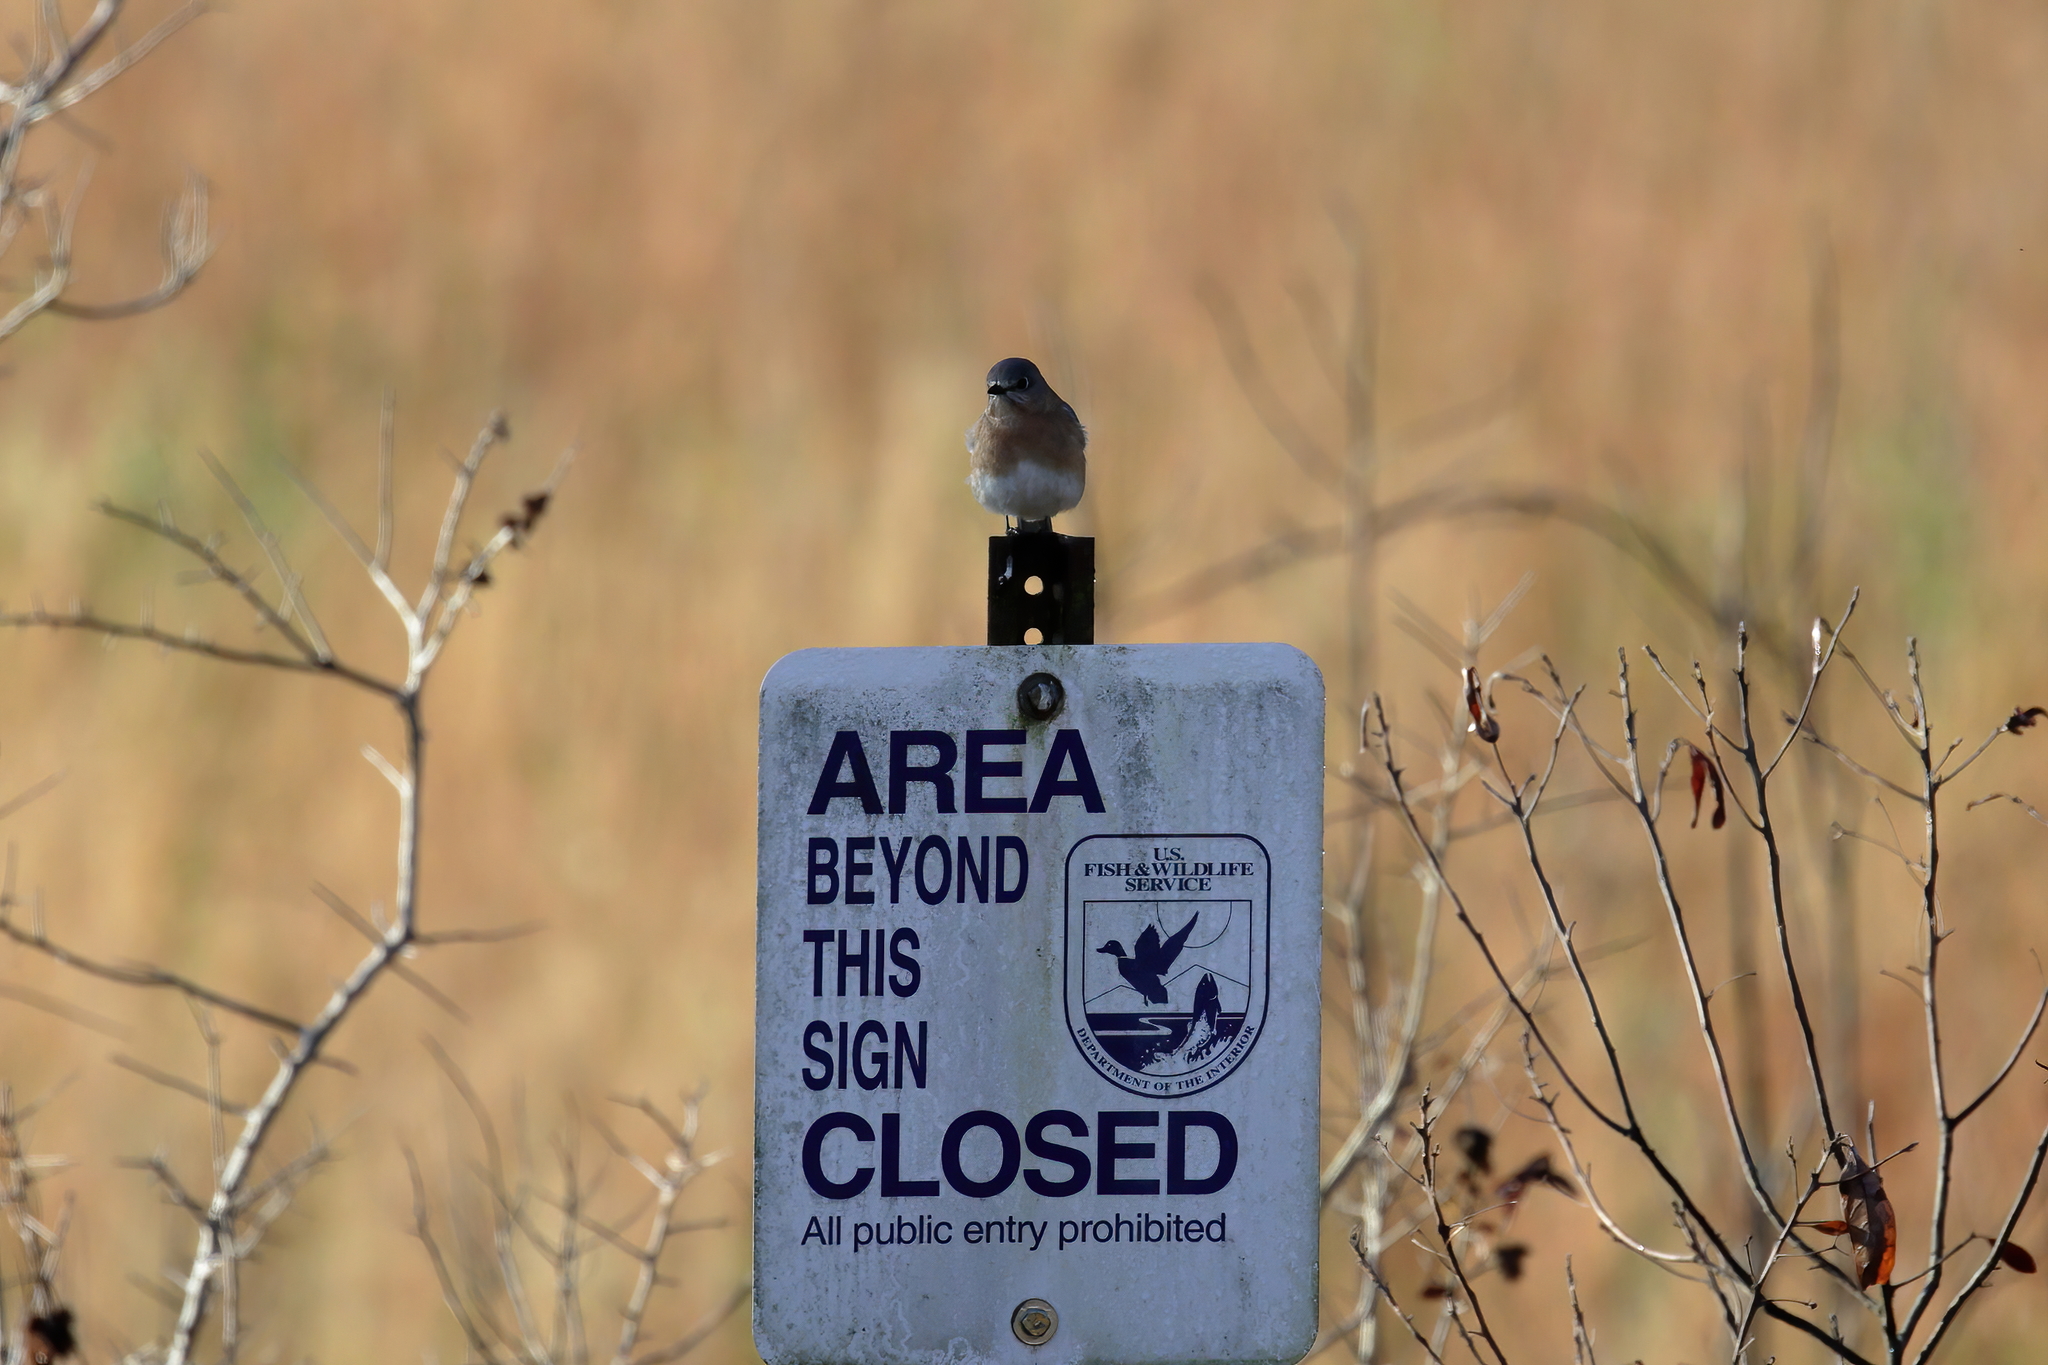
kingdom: Animalia
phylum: Chordata
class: Aves
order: Passeriformes
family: Turdidae
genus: Sialia
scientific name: Sialia sialis
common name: Eastern bluebird
